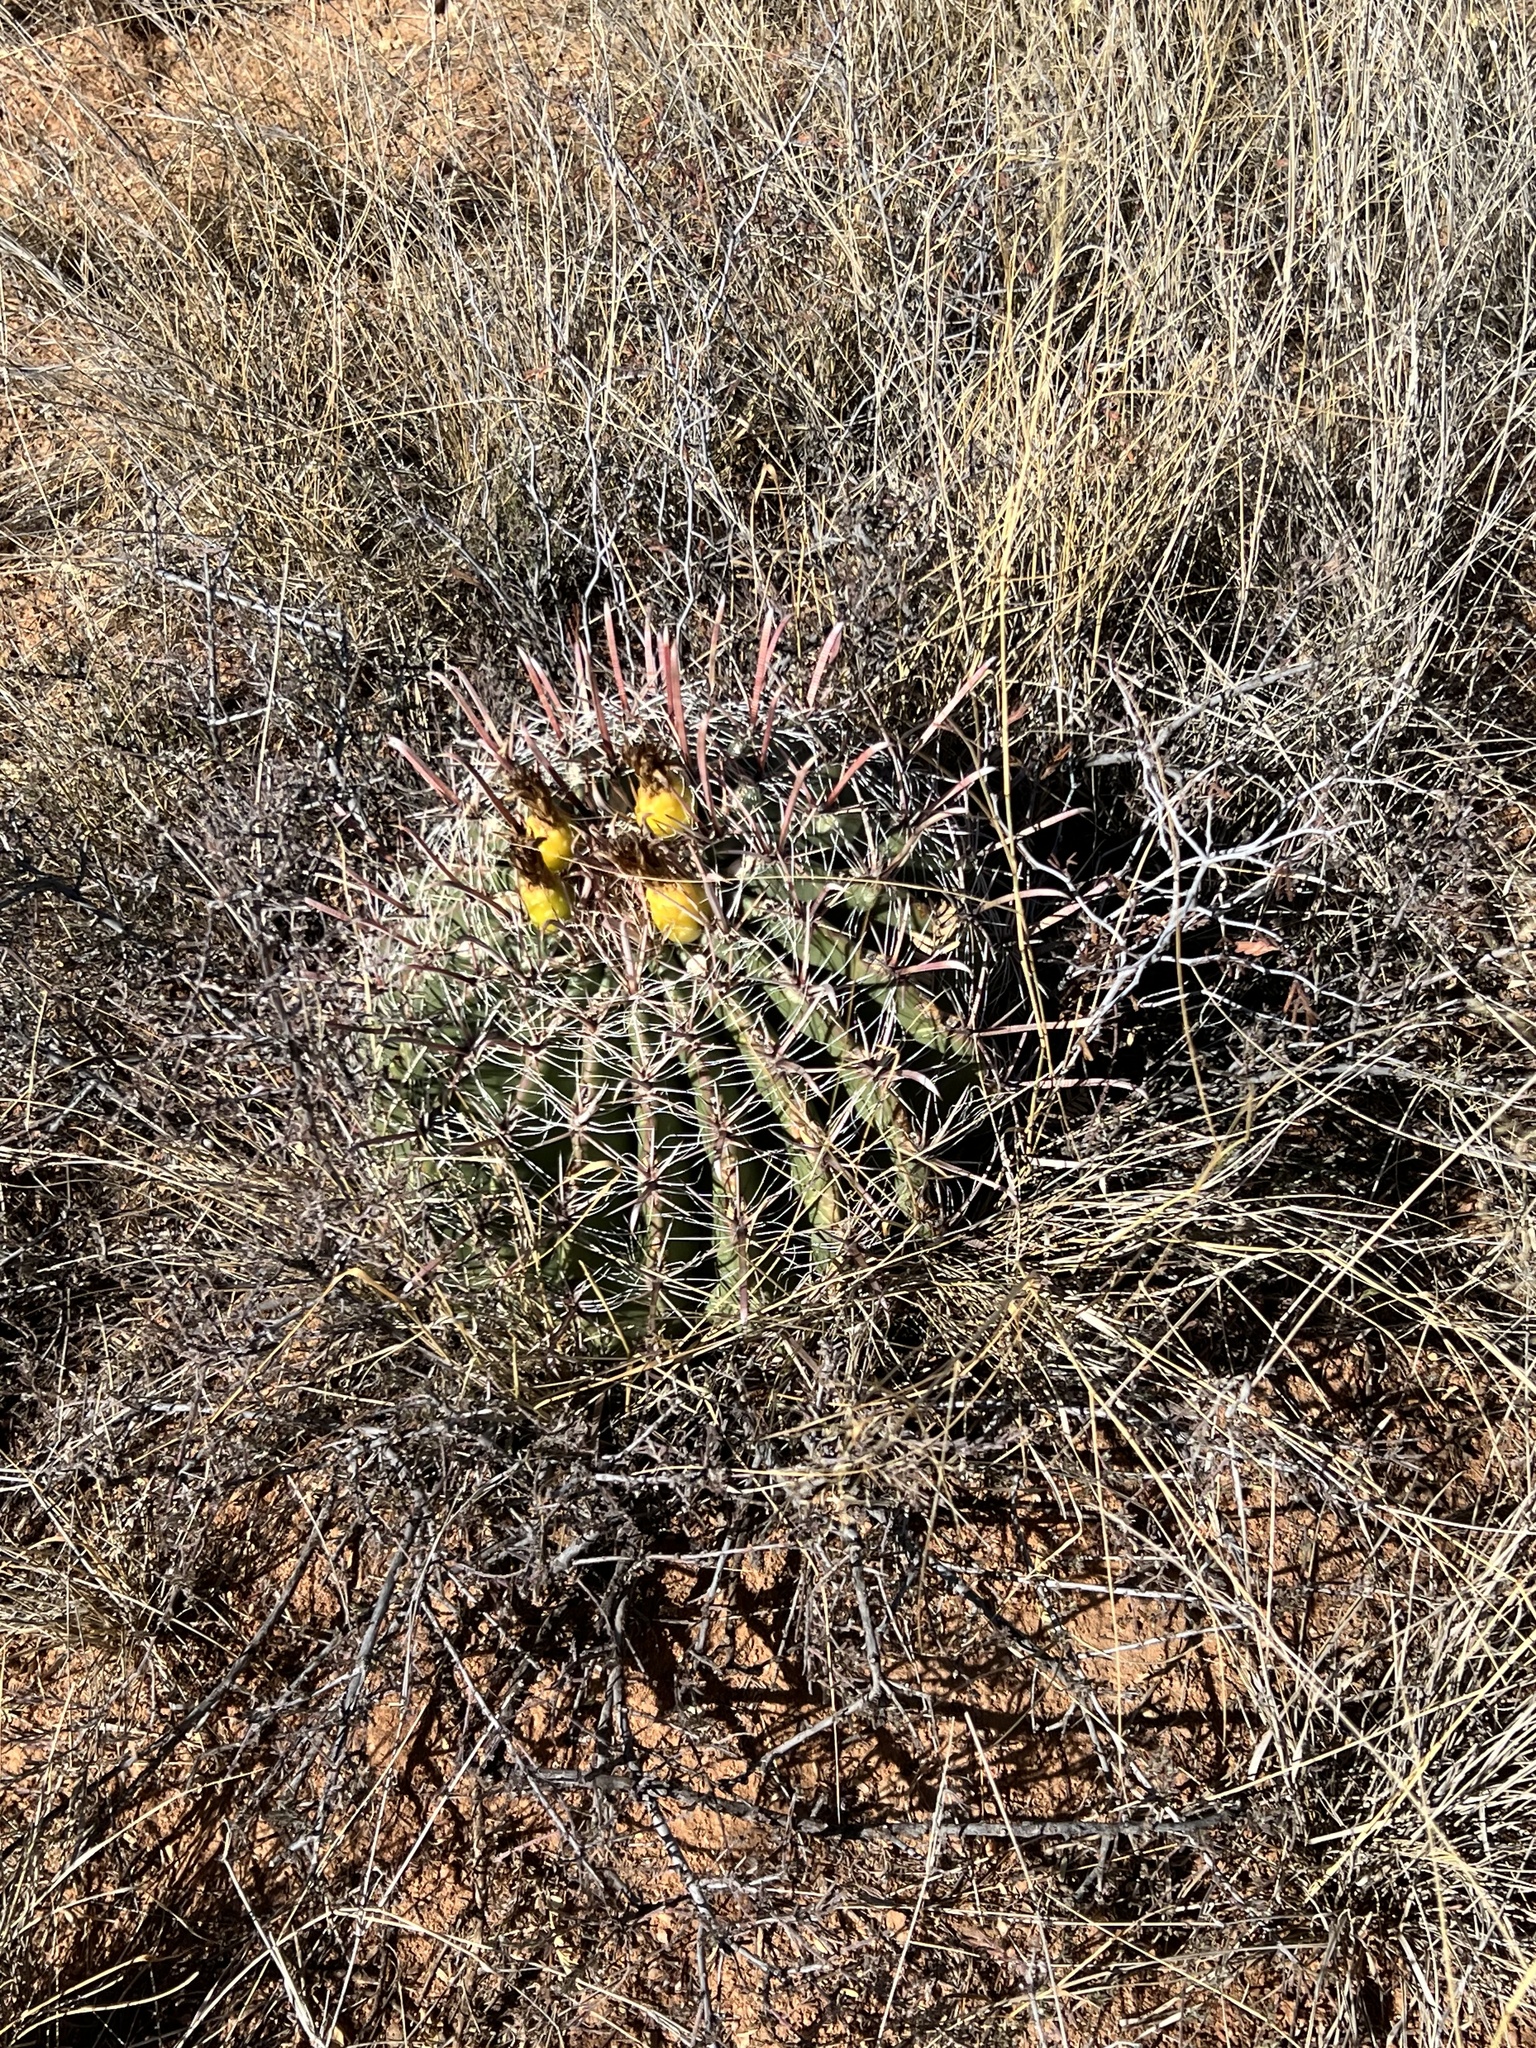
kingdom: Plantae
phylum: Tracheophyta
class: Magnoliopsida
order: Caryophyllales
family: Cactaceae
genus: Ferocactus
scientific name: Ferocactus wislizeni
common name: Candy barrel cactus
